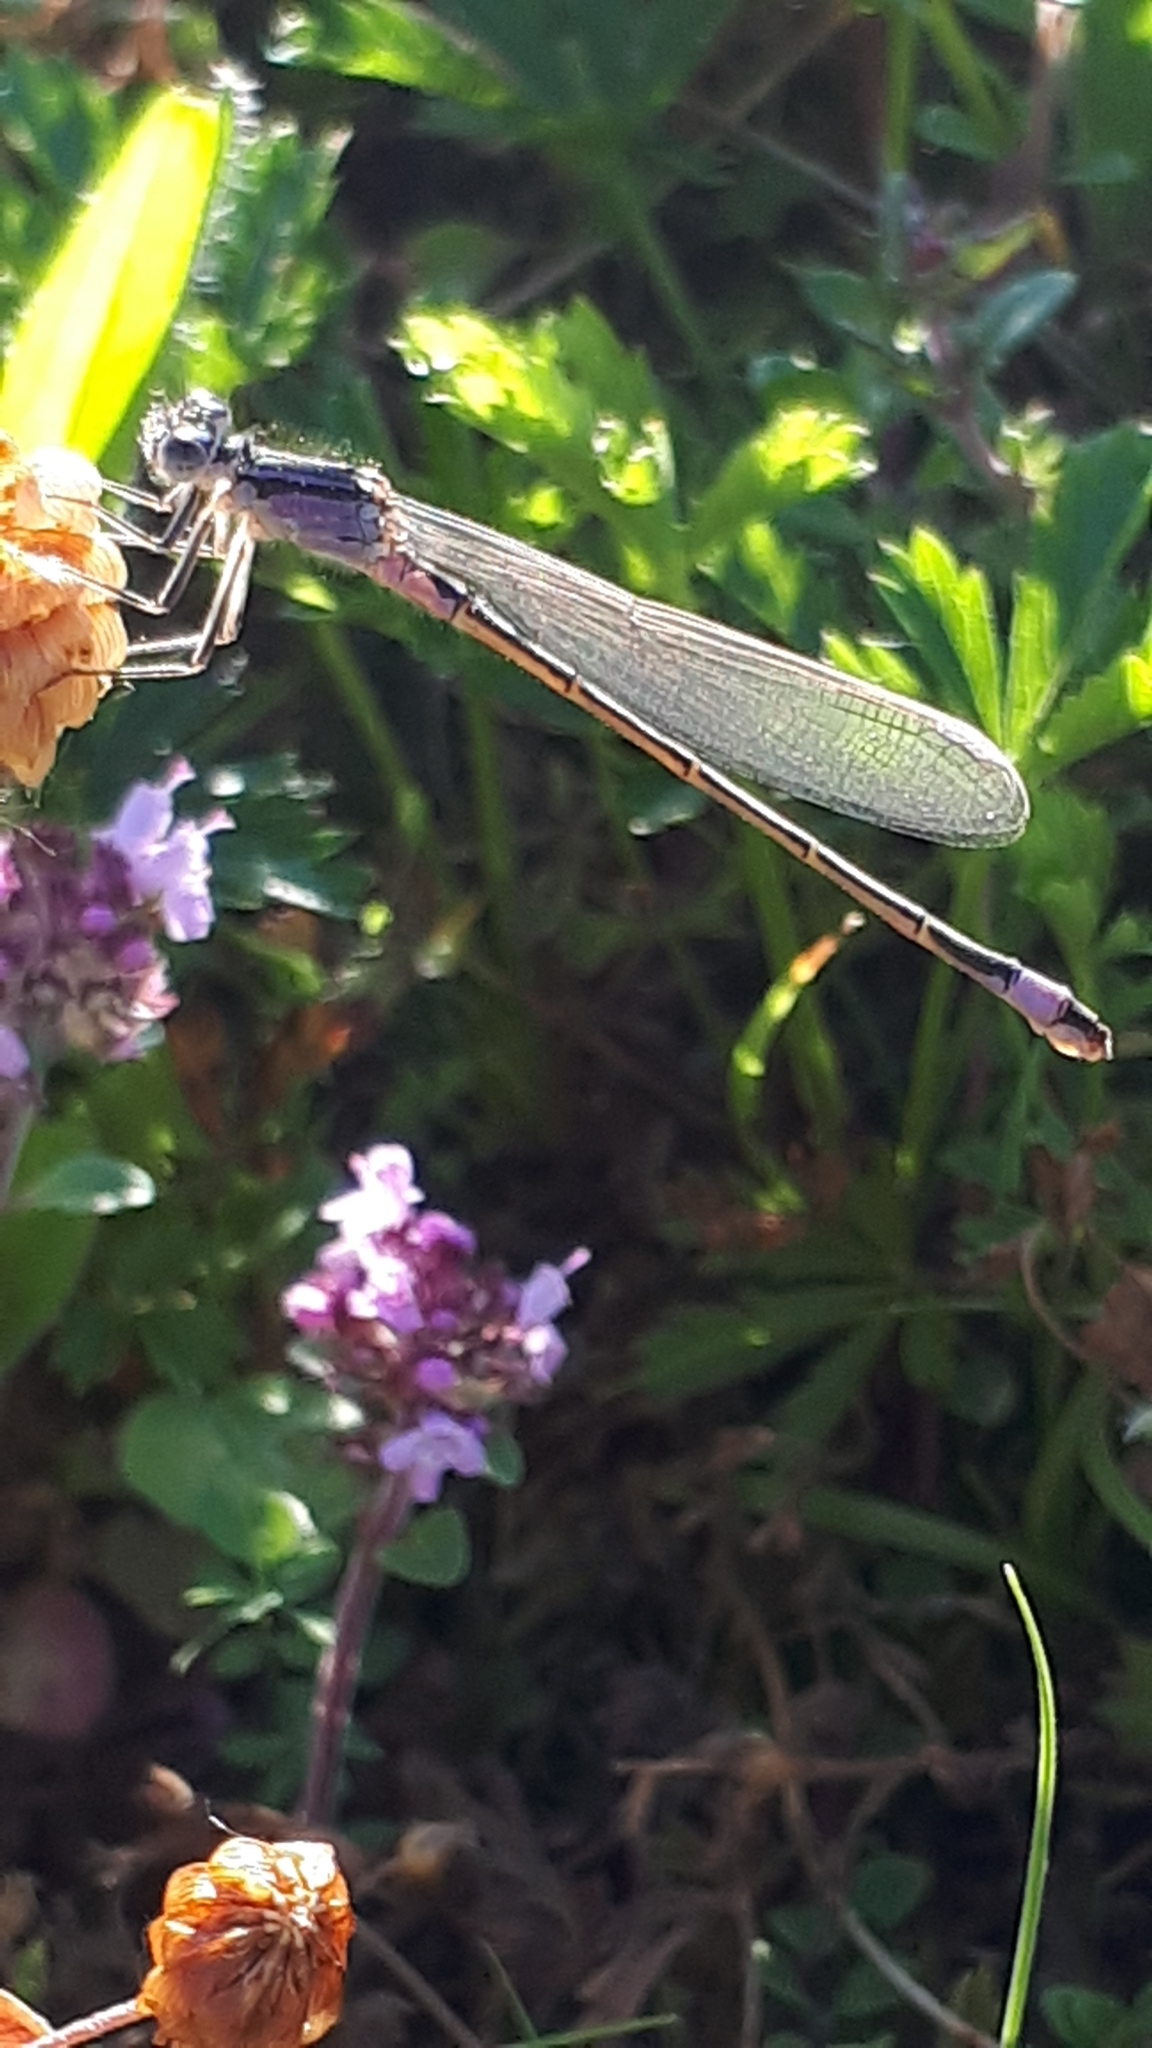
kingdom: Animalia
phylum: Arthropoda
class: Insecta
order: Odonata
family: Coenagrionidae
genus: Ischnura
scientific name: Ischnura elegans
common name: Blue-tailed damselfly
